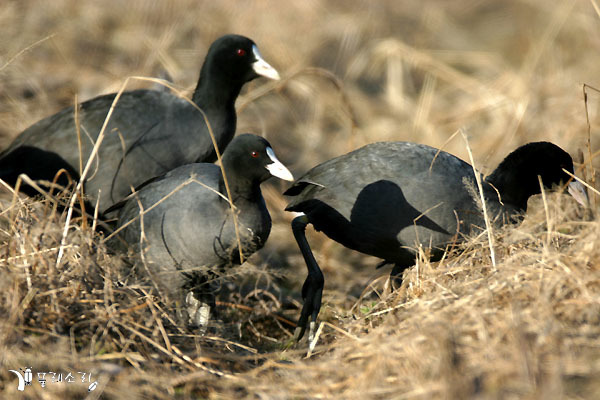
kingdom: Animalia
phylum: Chordata
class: Aves
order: Gruiformes
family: Rallidae
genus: Fulica
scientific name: Fulica atra
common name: Eurasian coot
